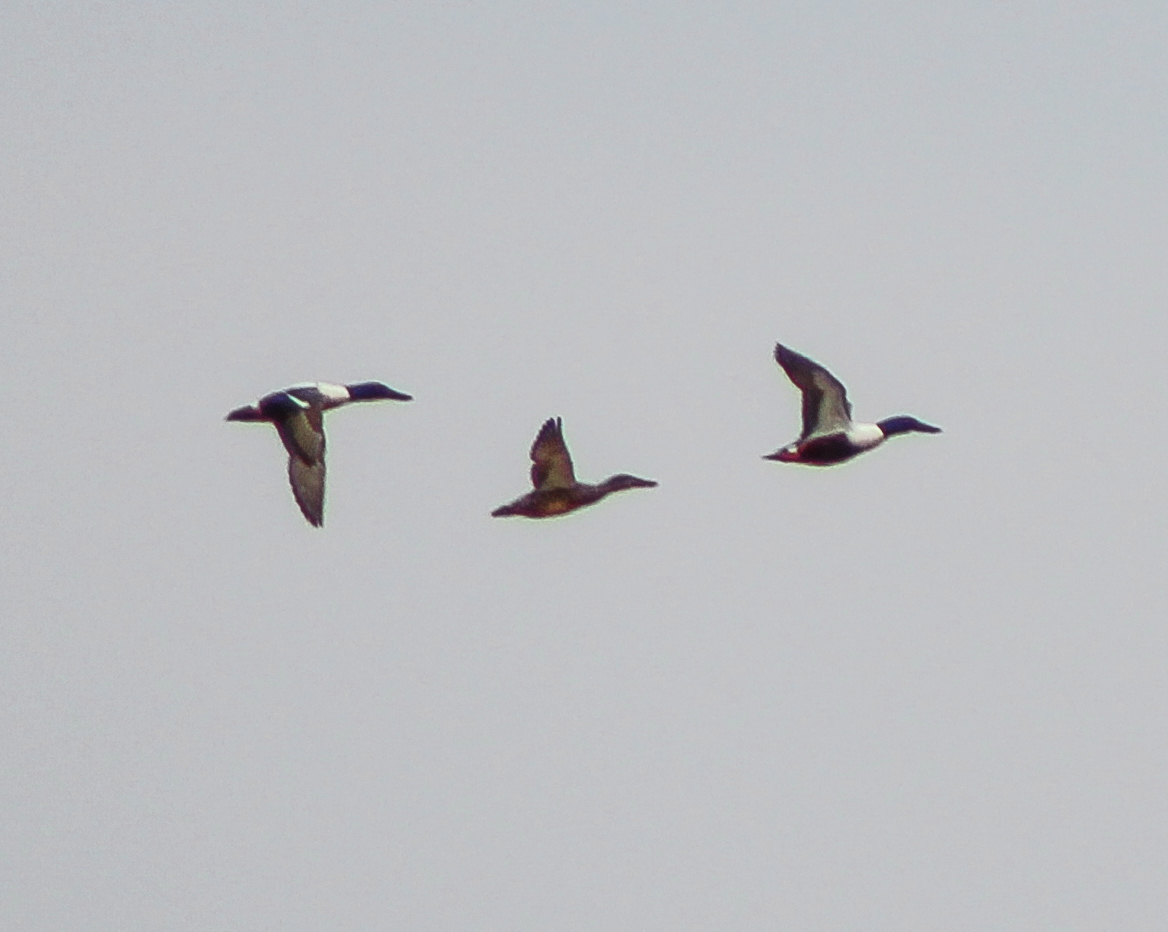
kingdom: Animalia
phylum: Chordata
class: Aves
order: Anseriformes
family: Anatidae
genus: Spatula
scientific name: Spatula clypeata
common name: Northern shoveler
